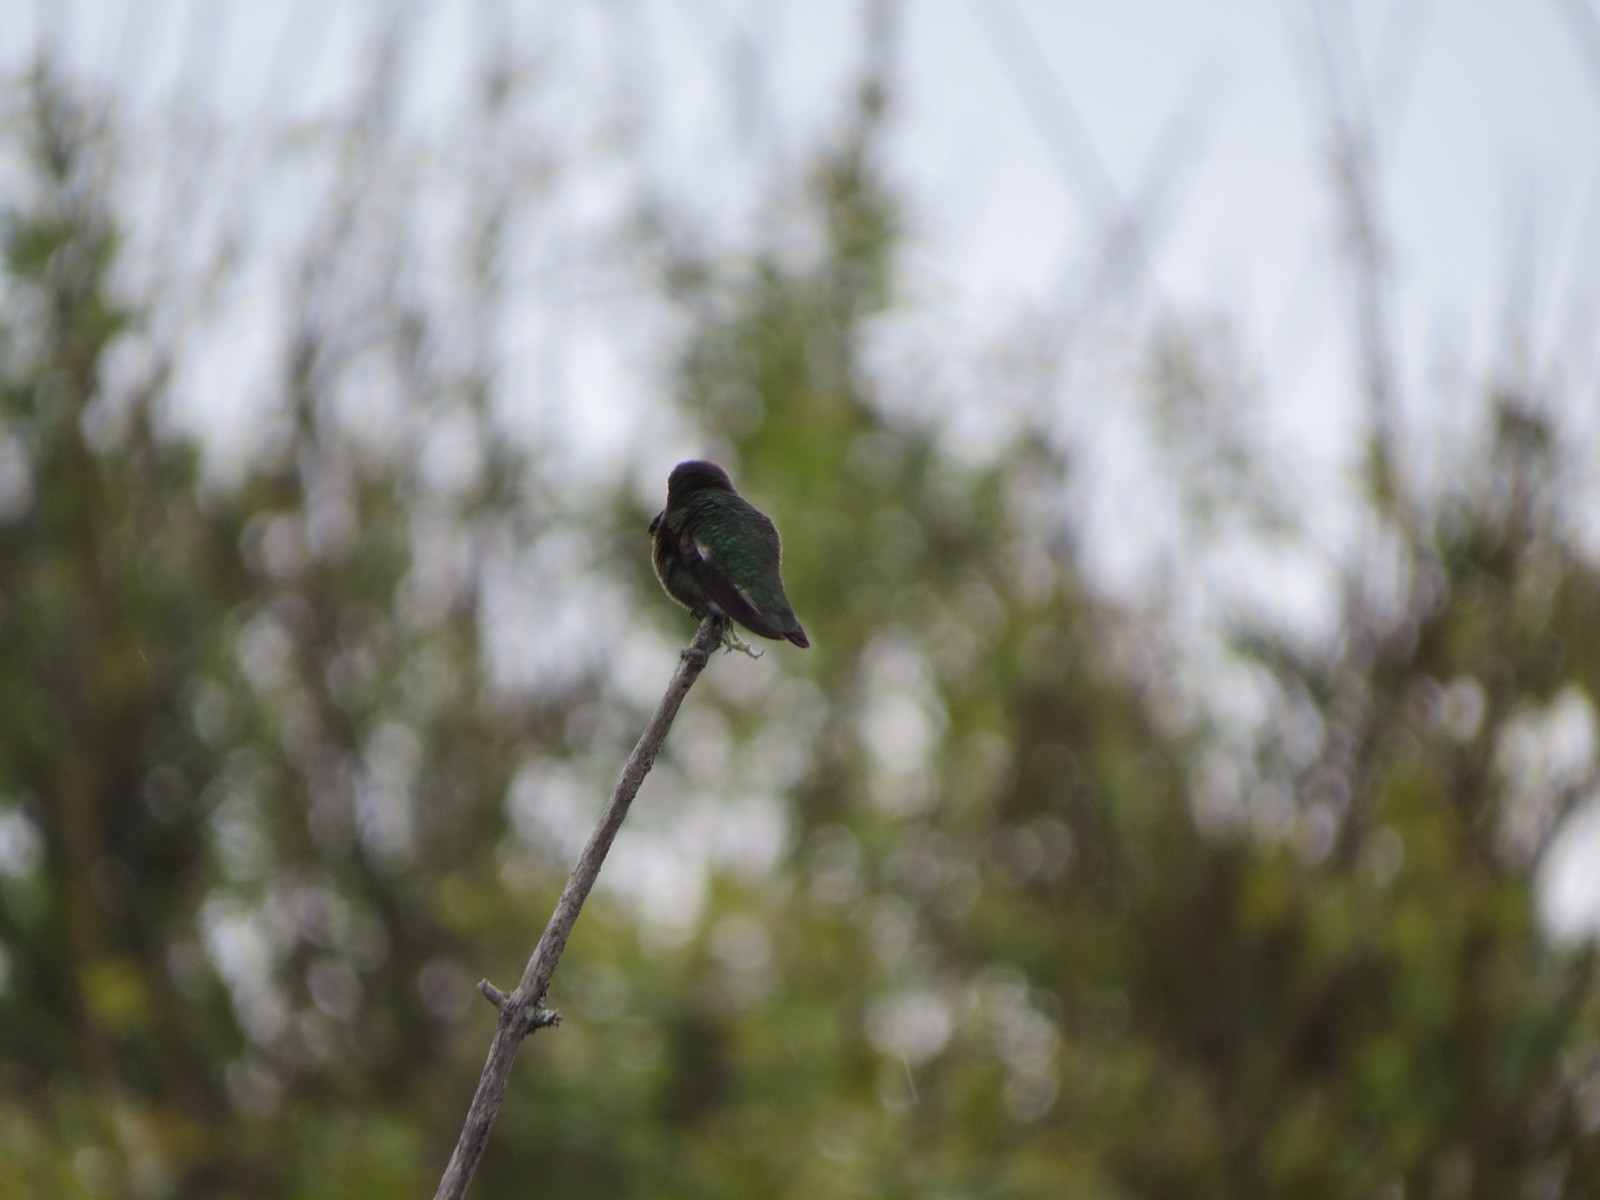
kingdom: Animalia
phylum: Chordata
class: Aves
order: Apodiformes
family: Trochilidae
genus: Calypte
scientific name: Calypte anna
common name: Anna's hummingbird
